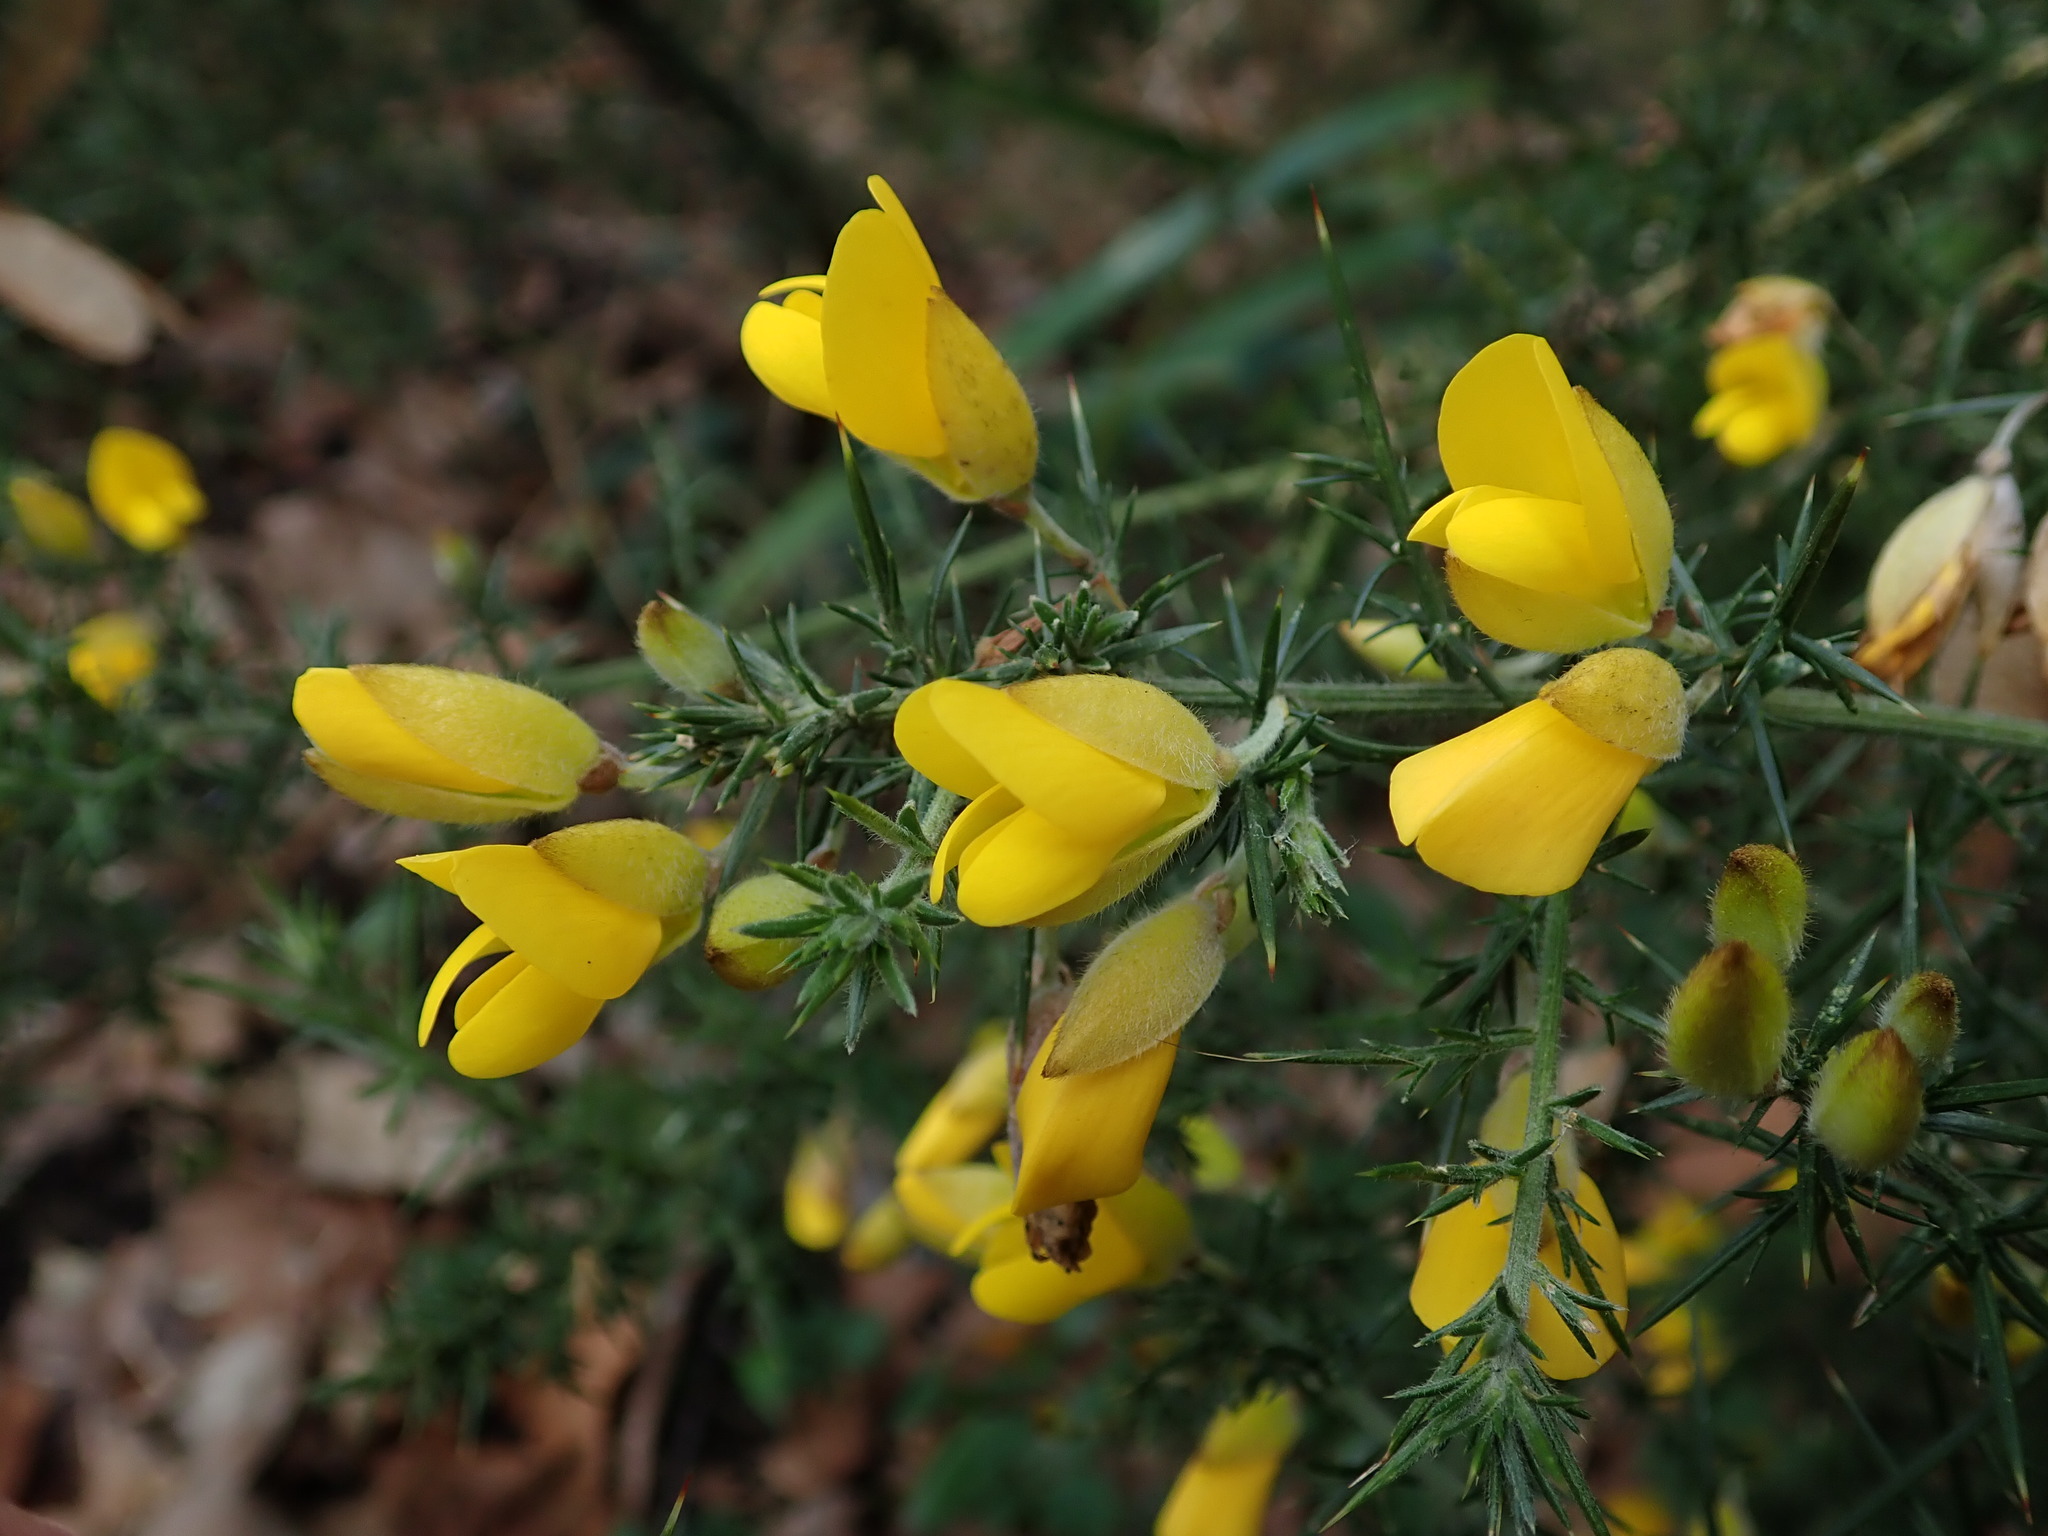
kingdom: Plantae
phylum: Tracheophyta
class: Magnoliopsida
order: Fabales
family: Fabaceae
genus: Ulex
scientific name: Ulex europaeus
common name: Common gorse
